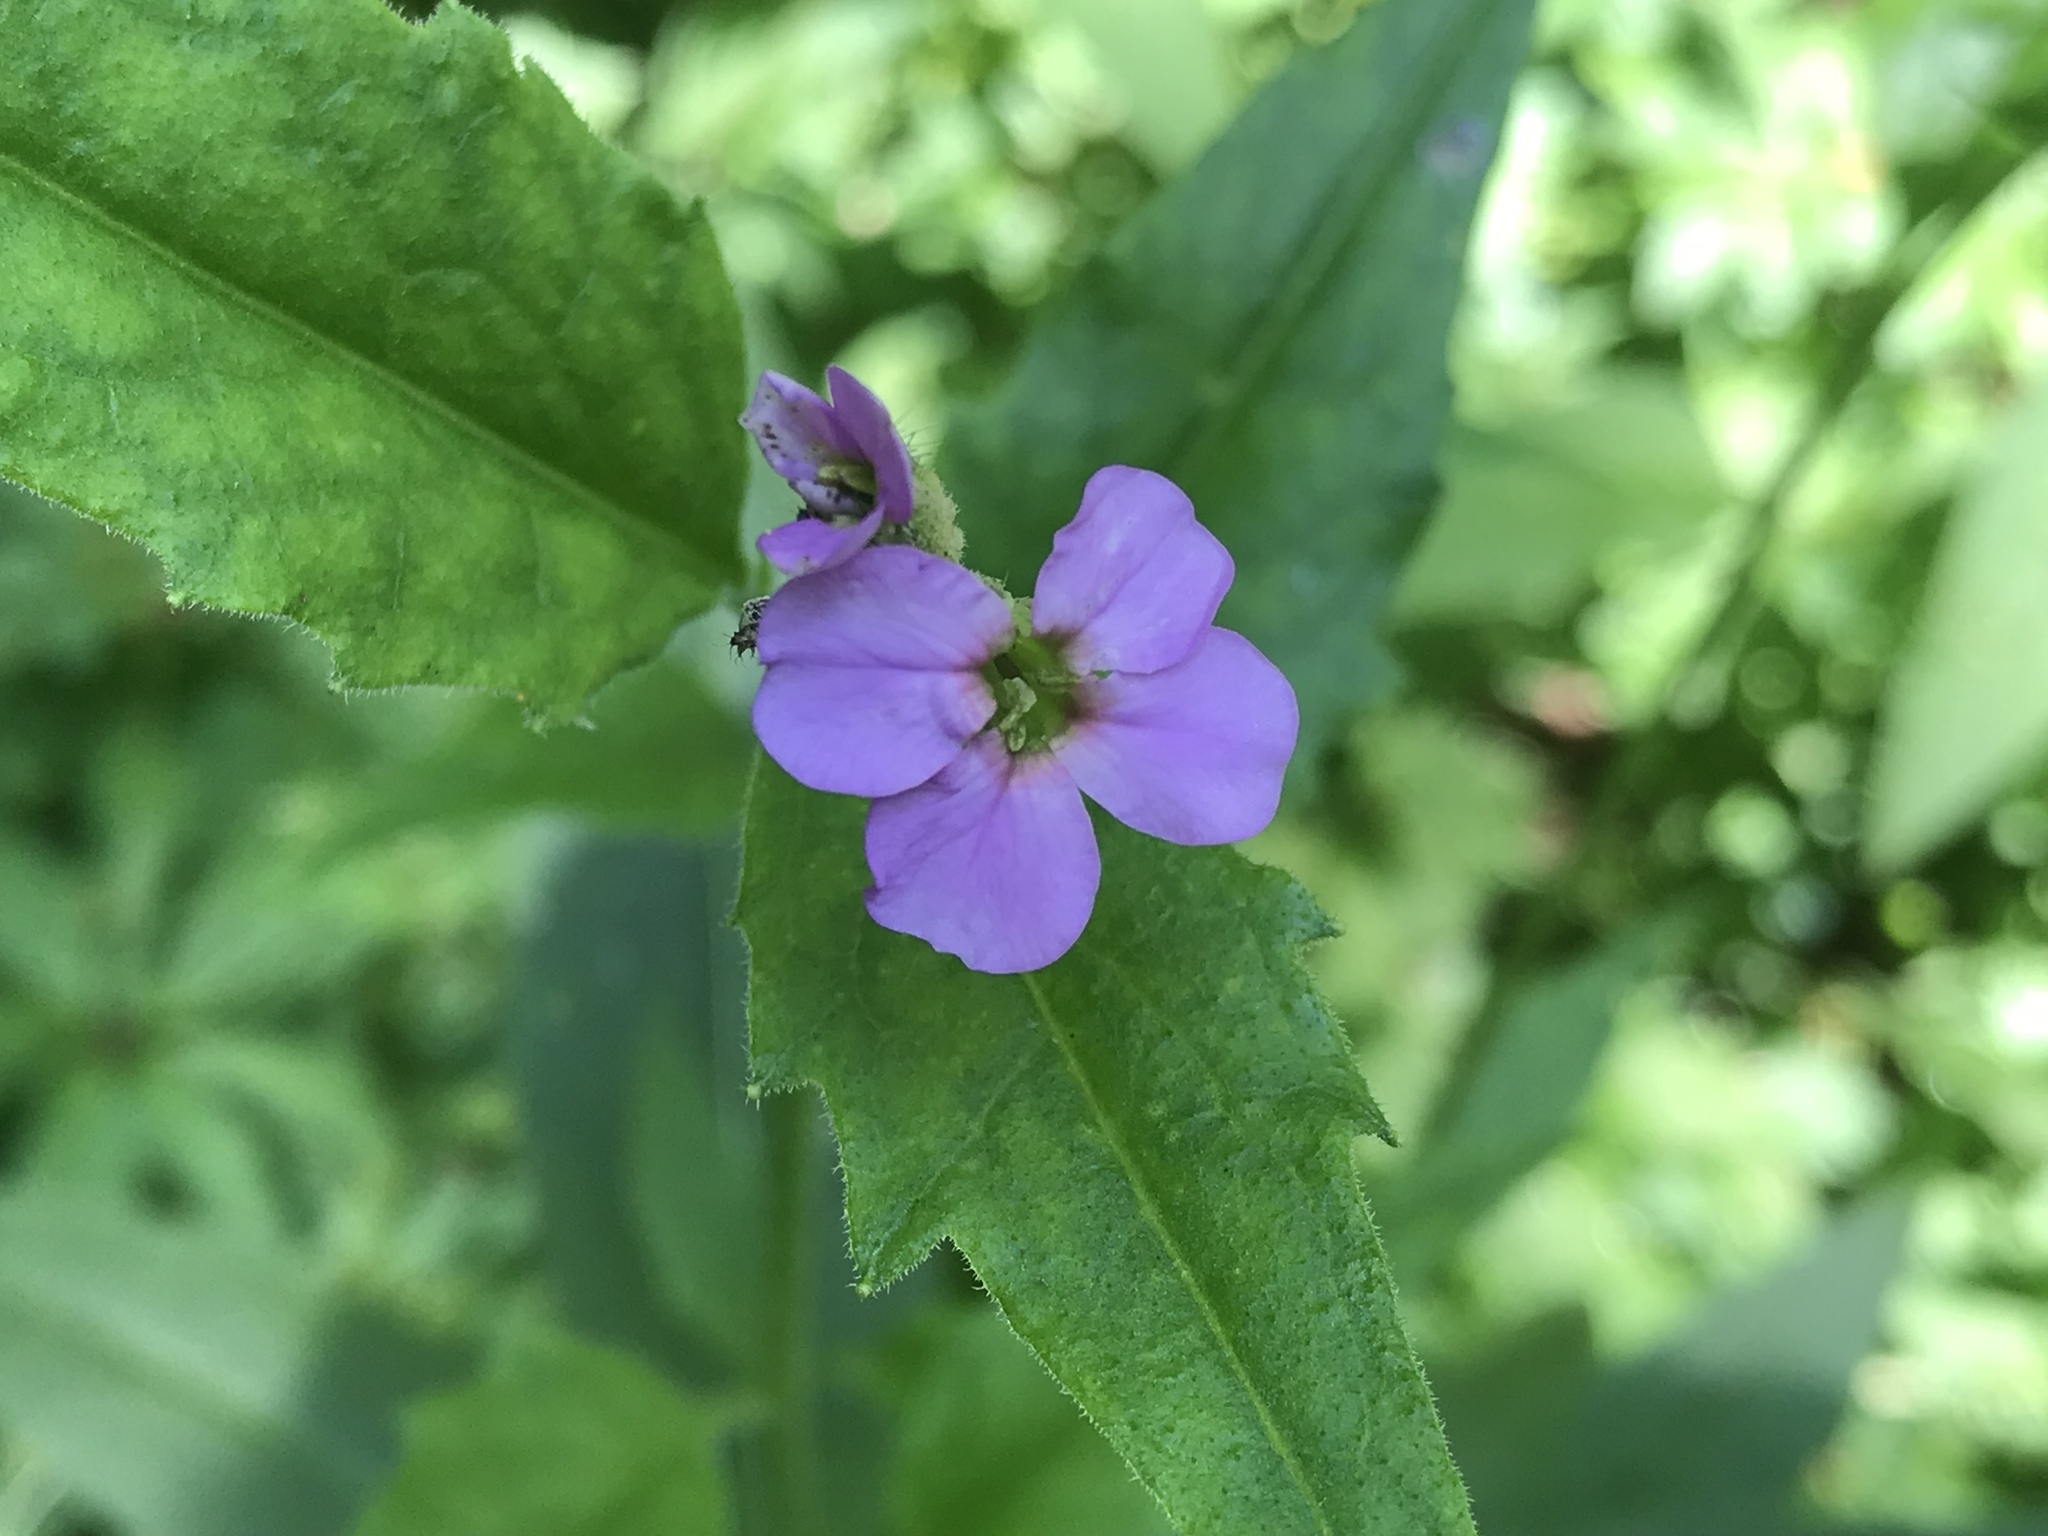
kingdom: Plantae
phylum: Tracheophyta
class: Magnoliopsida
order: Brassicales
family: Brassicaceae
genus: Hesperis
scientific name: Hesperis matronalis
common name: Dame's-violet
